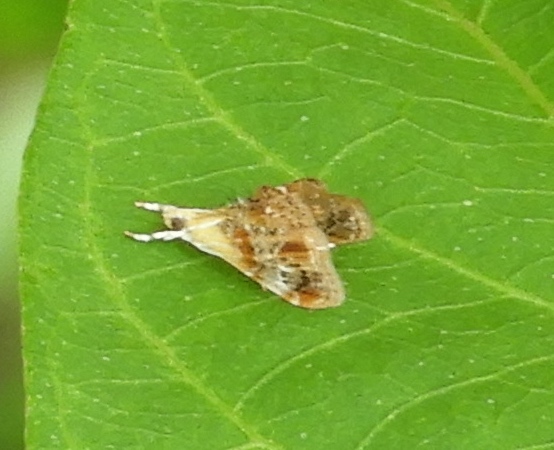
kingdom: Animalia
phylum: Arthropoda
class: Insecta
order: Lepidoptera
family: Crambidae
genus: Dicymolomia
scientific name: Dicymolomia
